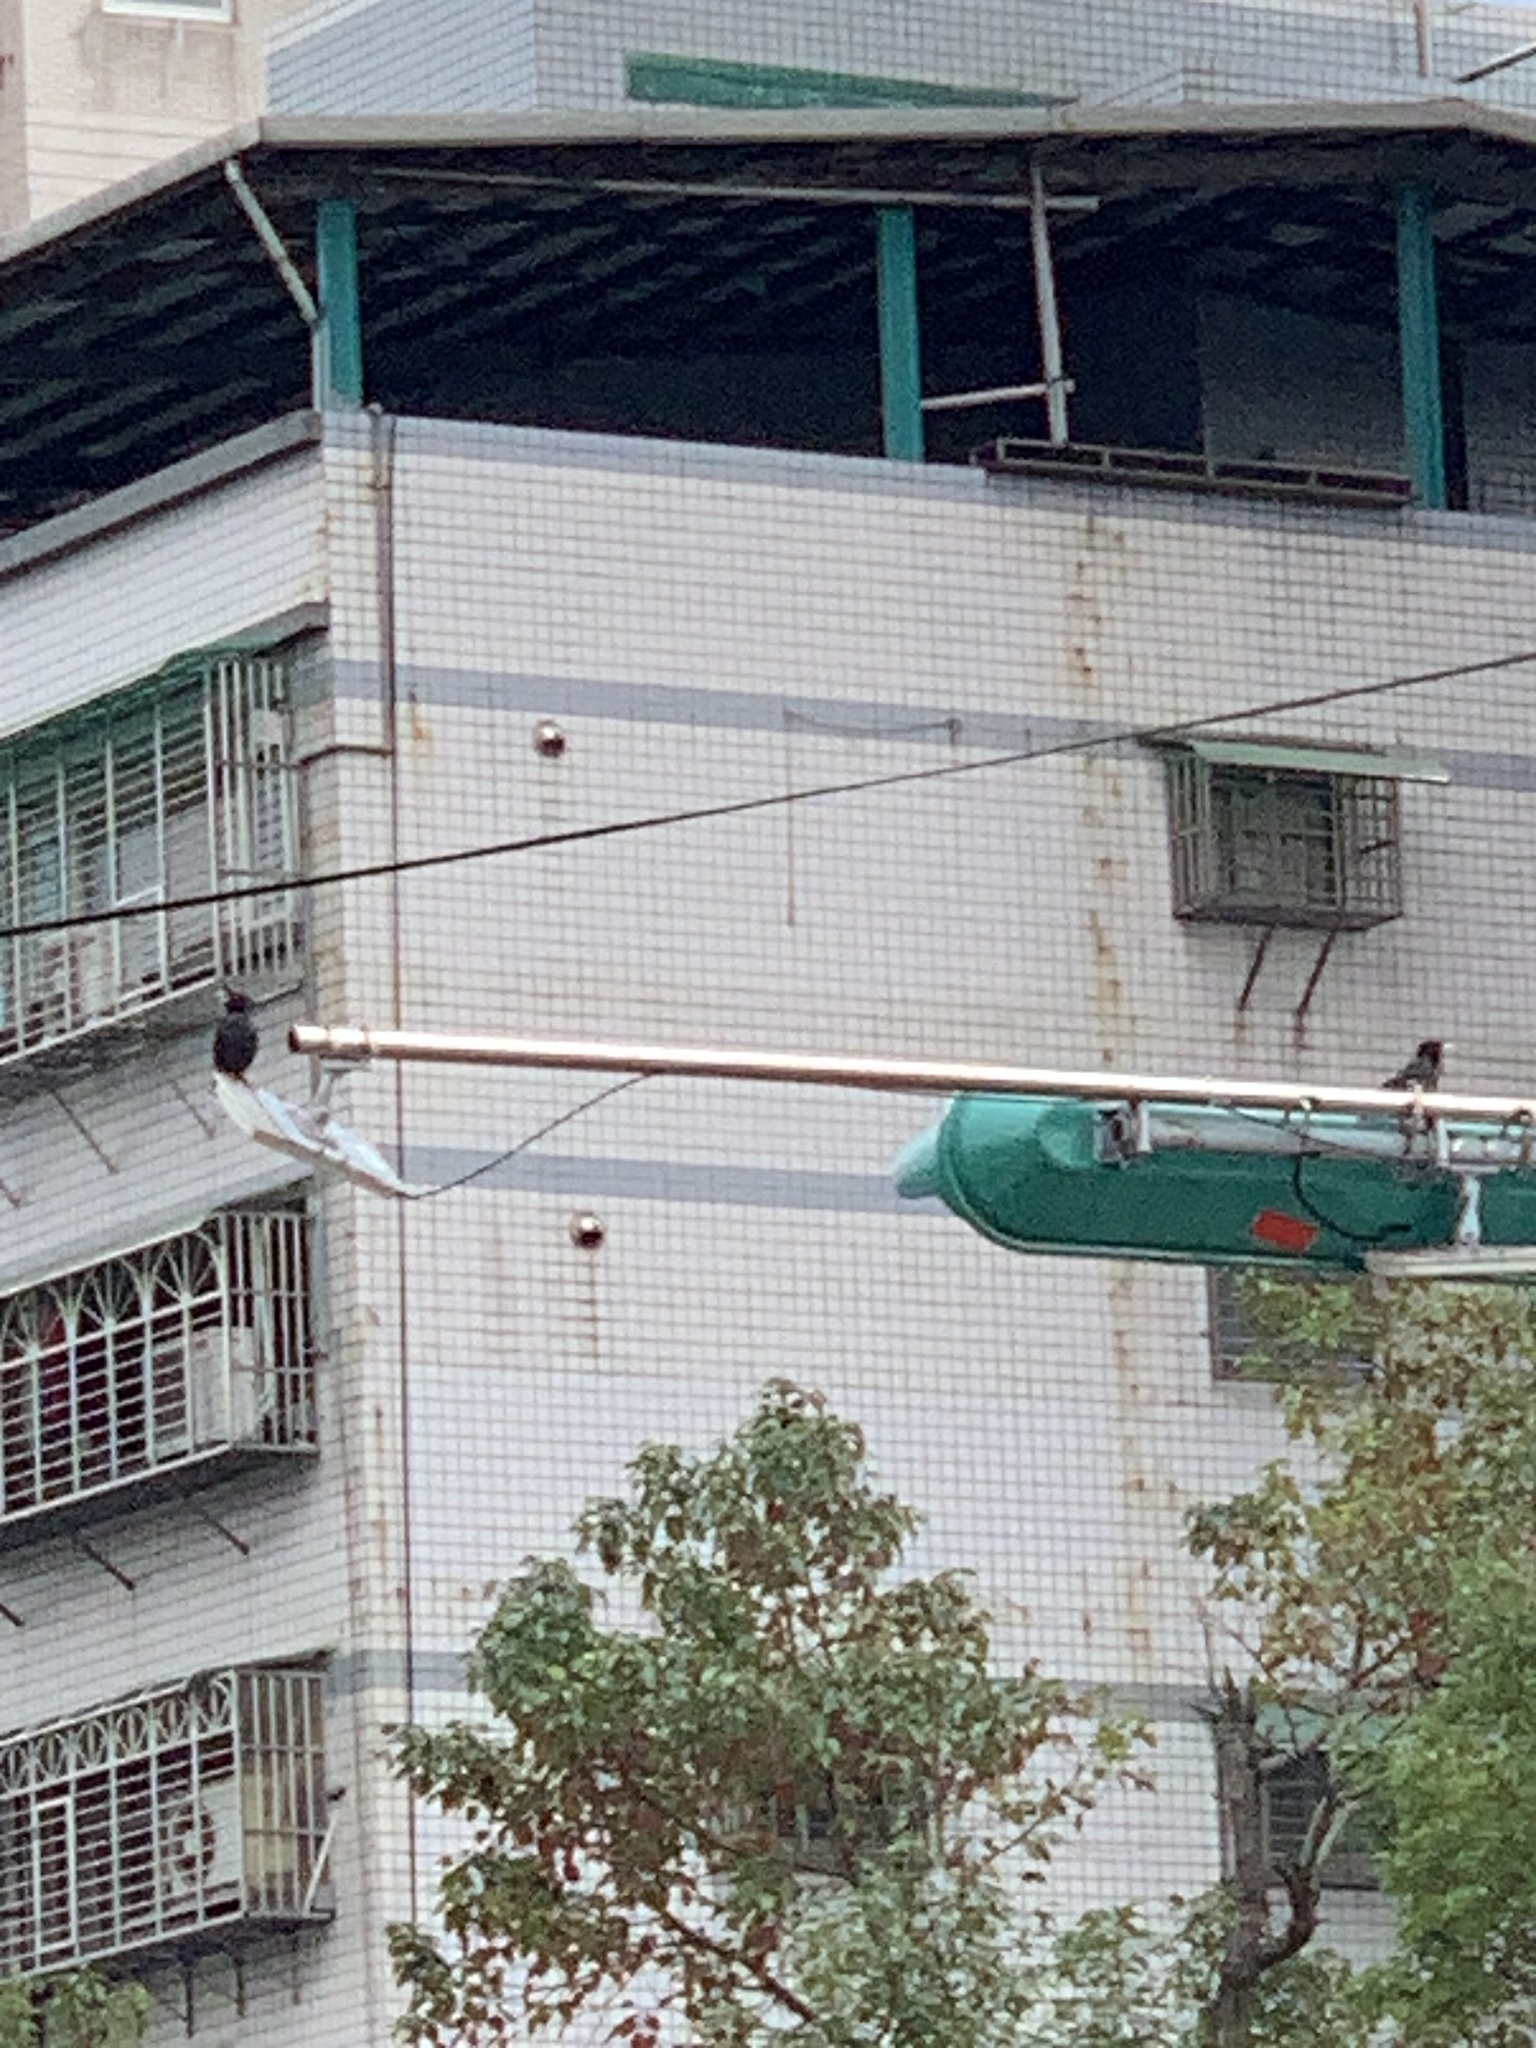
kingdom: Animalia
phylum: Chordata
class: Aves
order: Passeriformes
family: Sturnidae
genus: Acridotheres
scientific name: Acridotheres cristatellus
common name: Crested myna
